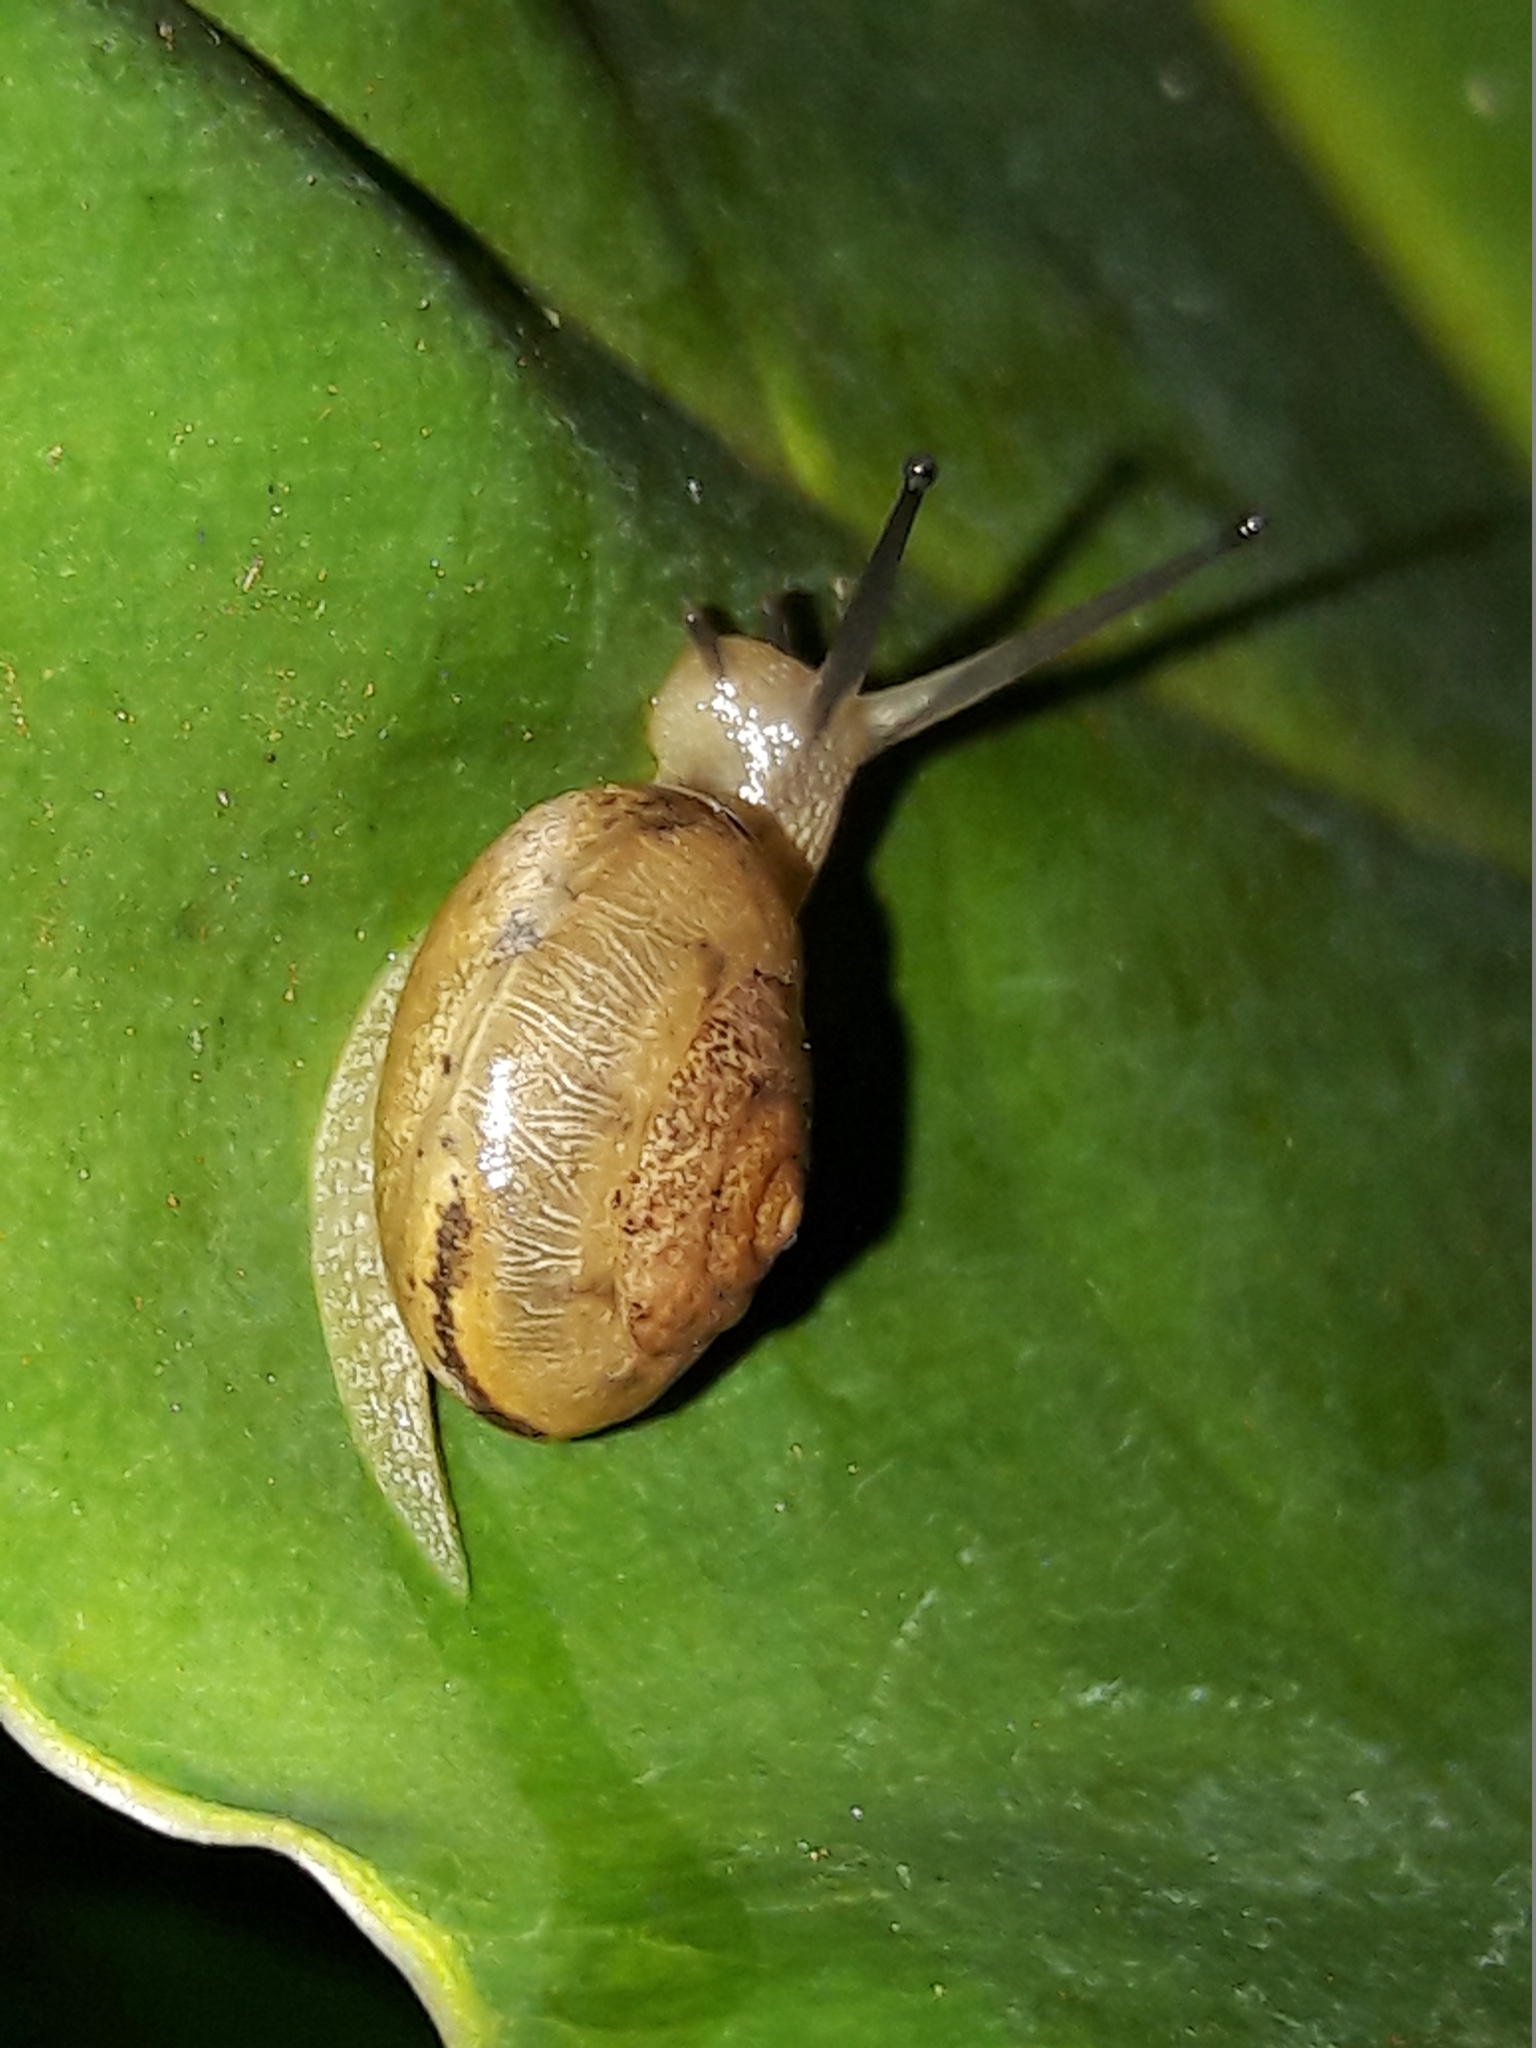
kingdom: Animalia
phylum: Mollusca
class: Gastropoda
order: Stylommatophora
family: Camaenidae
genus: Bradybaena
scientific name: Bradybaena similaris
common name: Asian trampsnail
